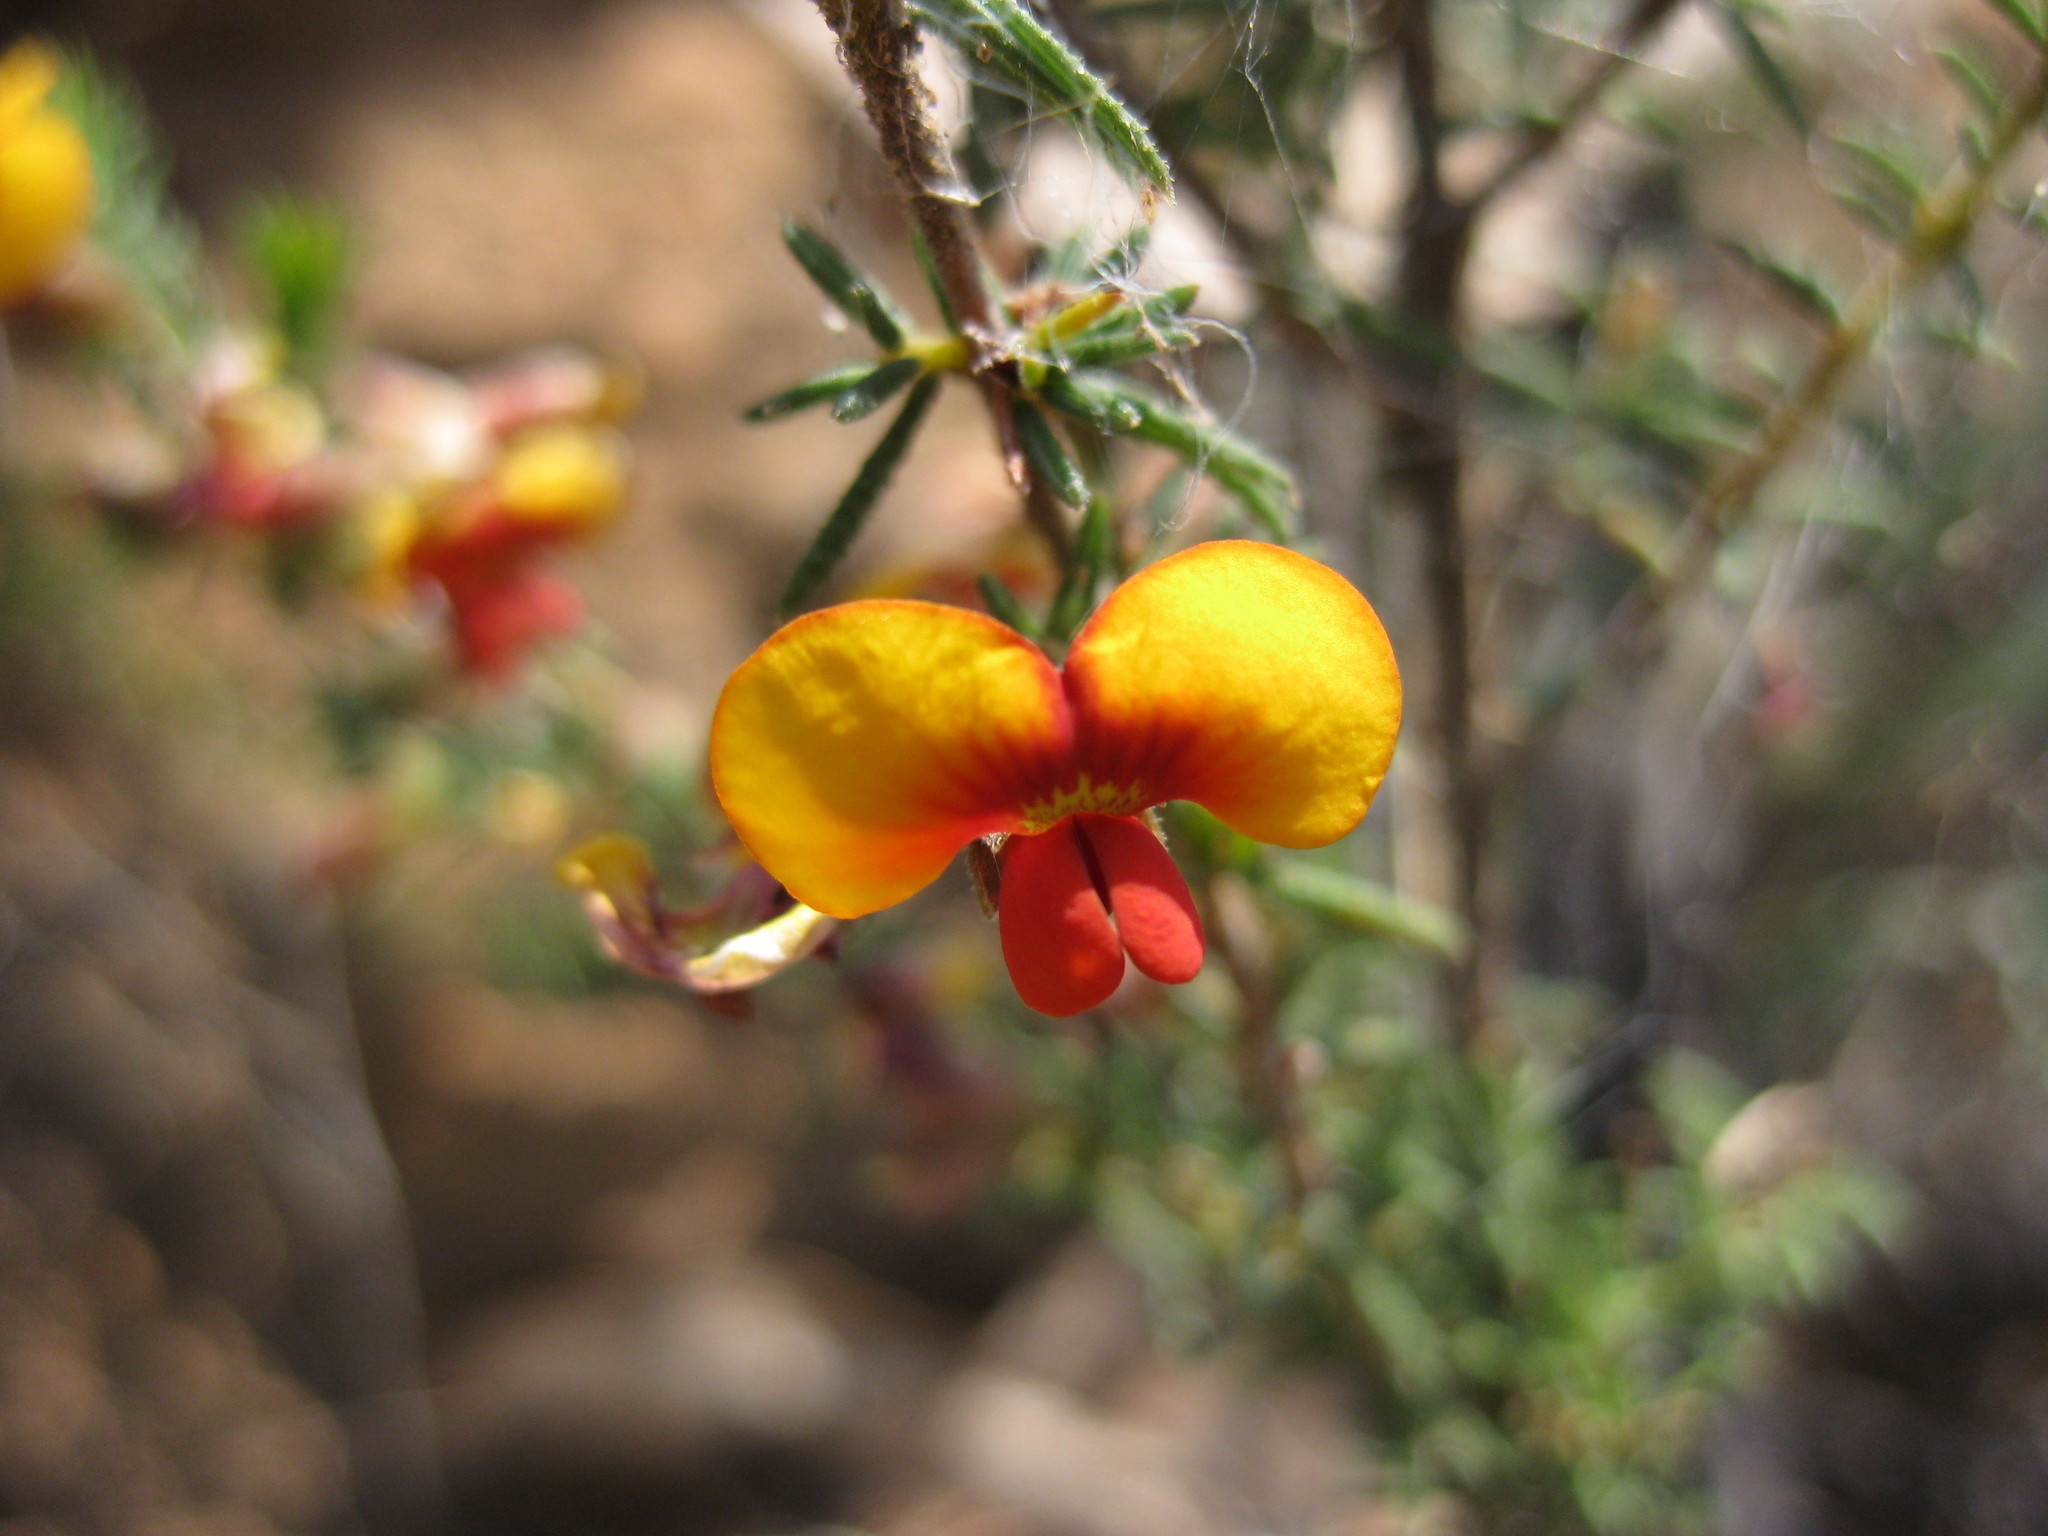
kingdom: Plantae
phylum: Tracheophyta
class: Magnoliopsida
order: Fabales
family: Fabaceae
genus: Dillwynia
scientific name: Dillwynia phylicoides
